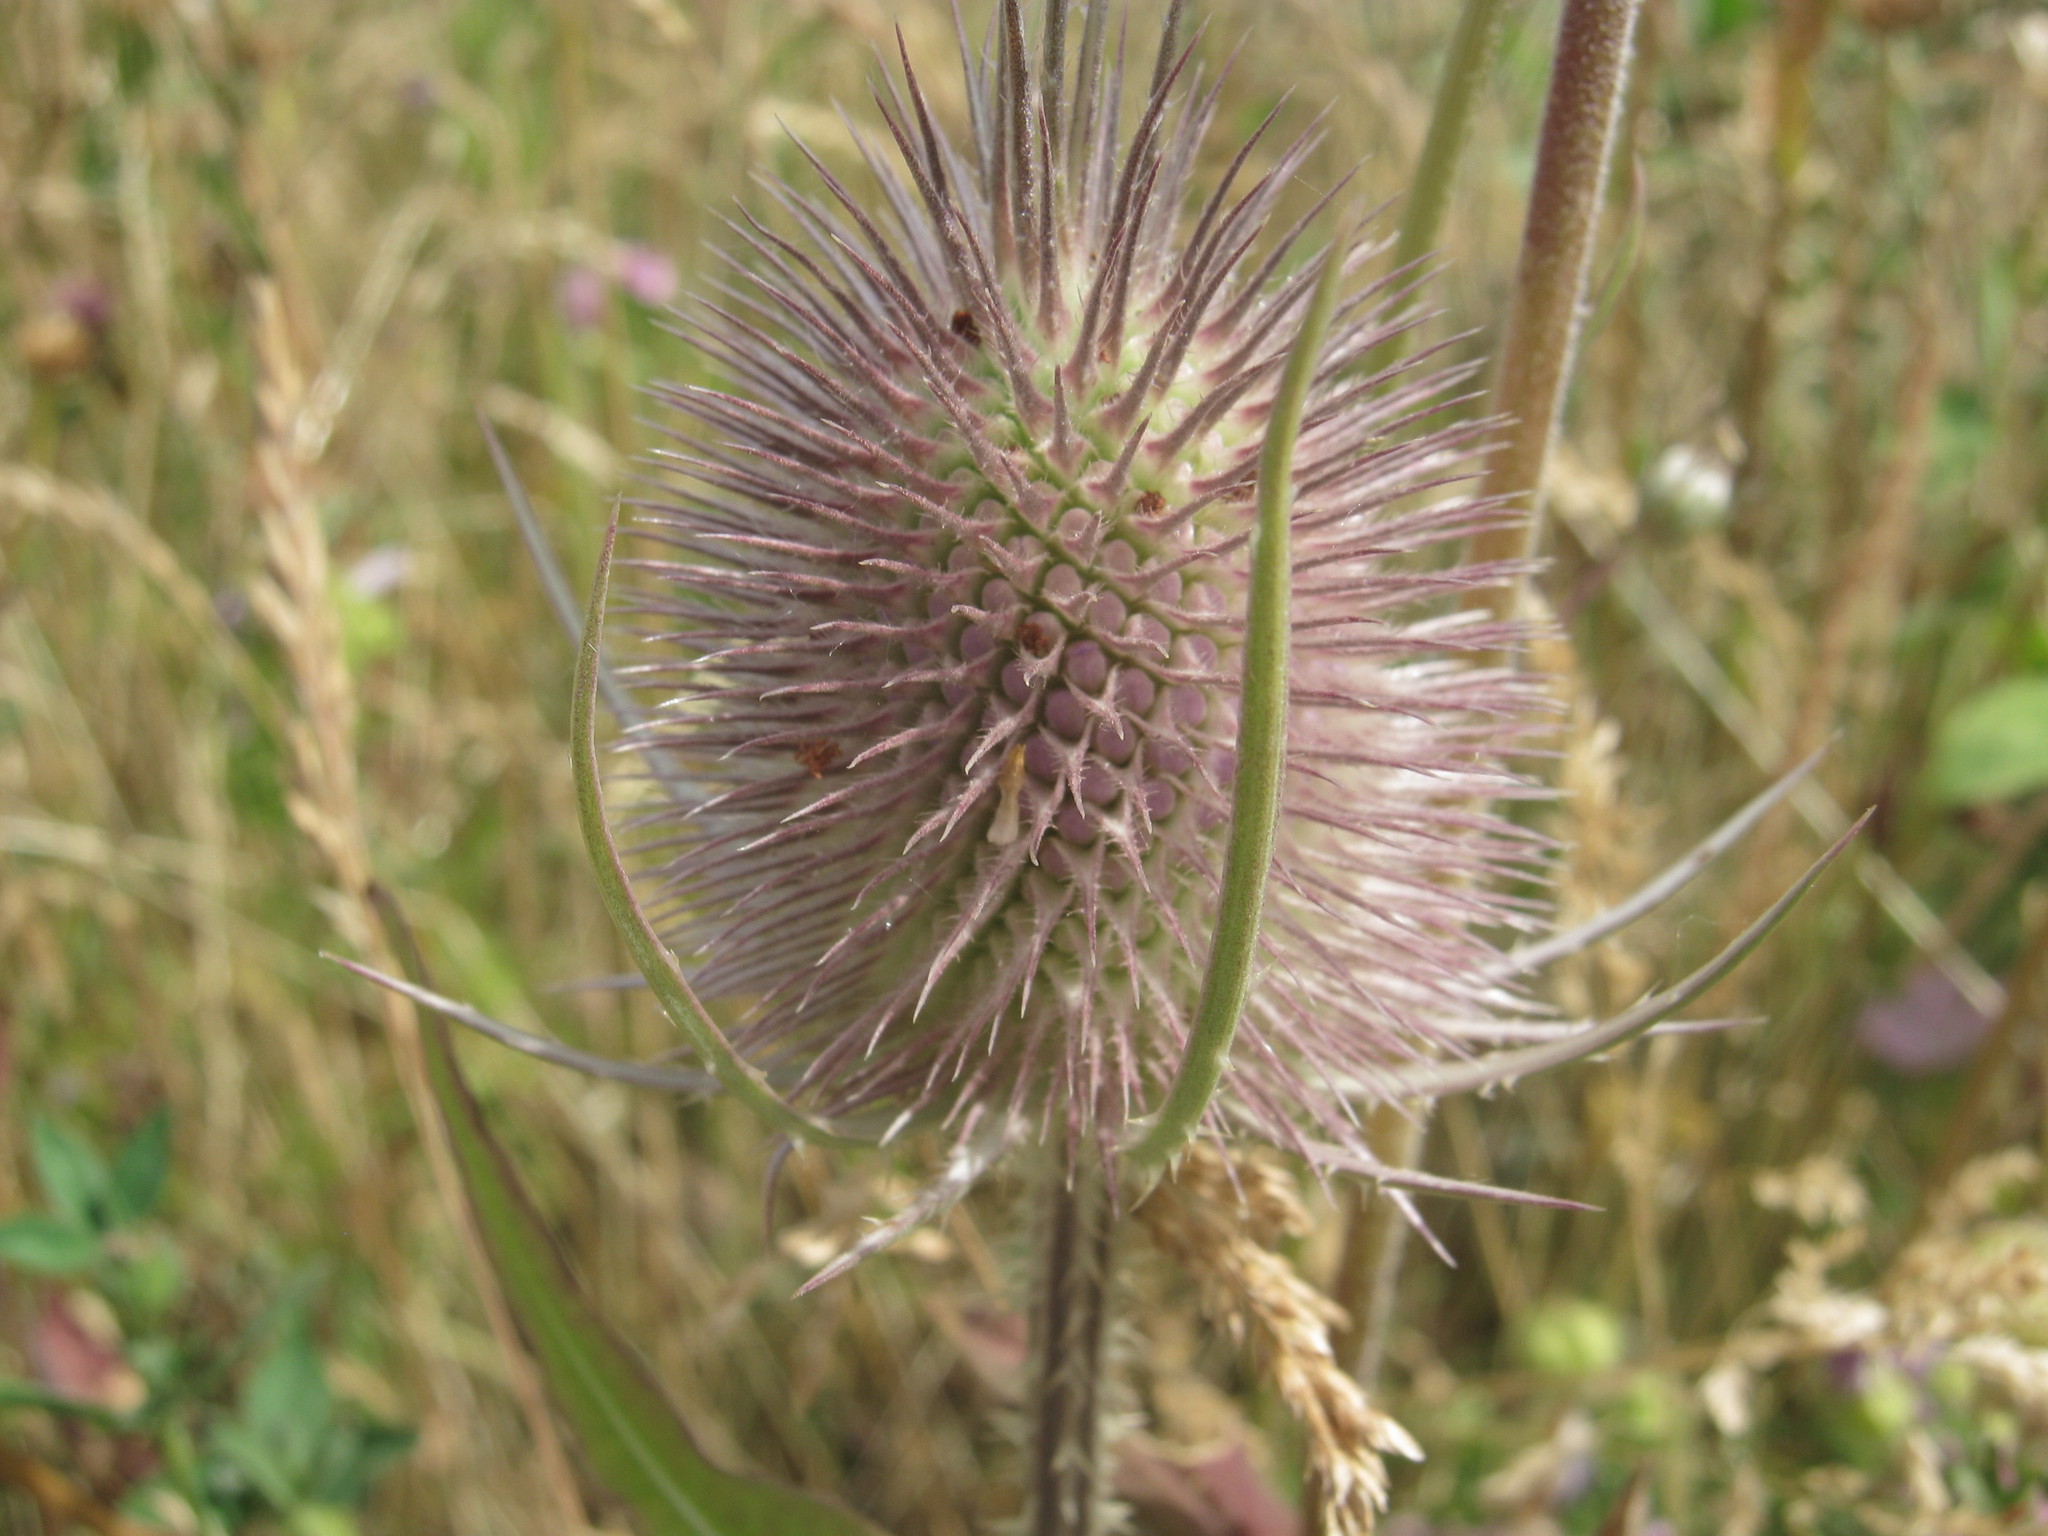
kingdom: Plantae
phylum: Tracheophyta
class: Magnoliopsida
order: Dipsacales
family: Caprifoliaceae
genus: Dipsacus
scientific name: Dipsacus fullonum
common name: Teasel
